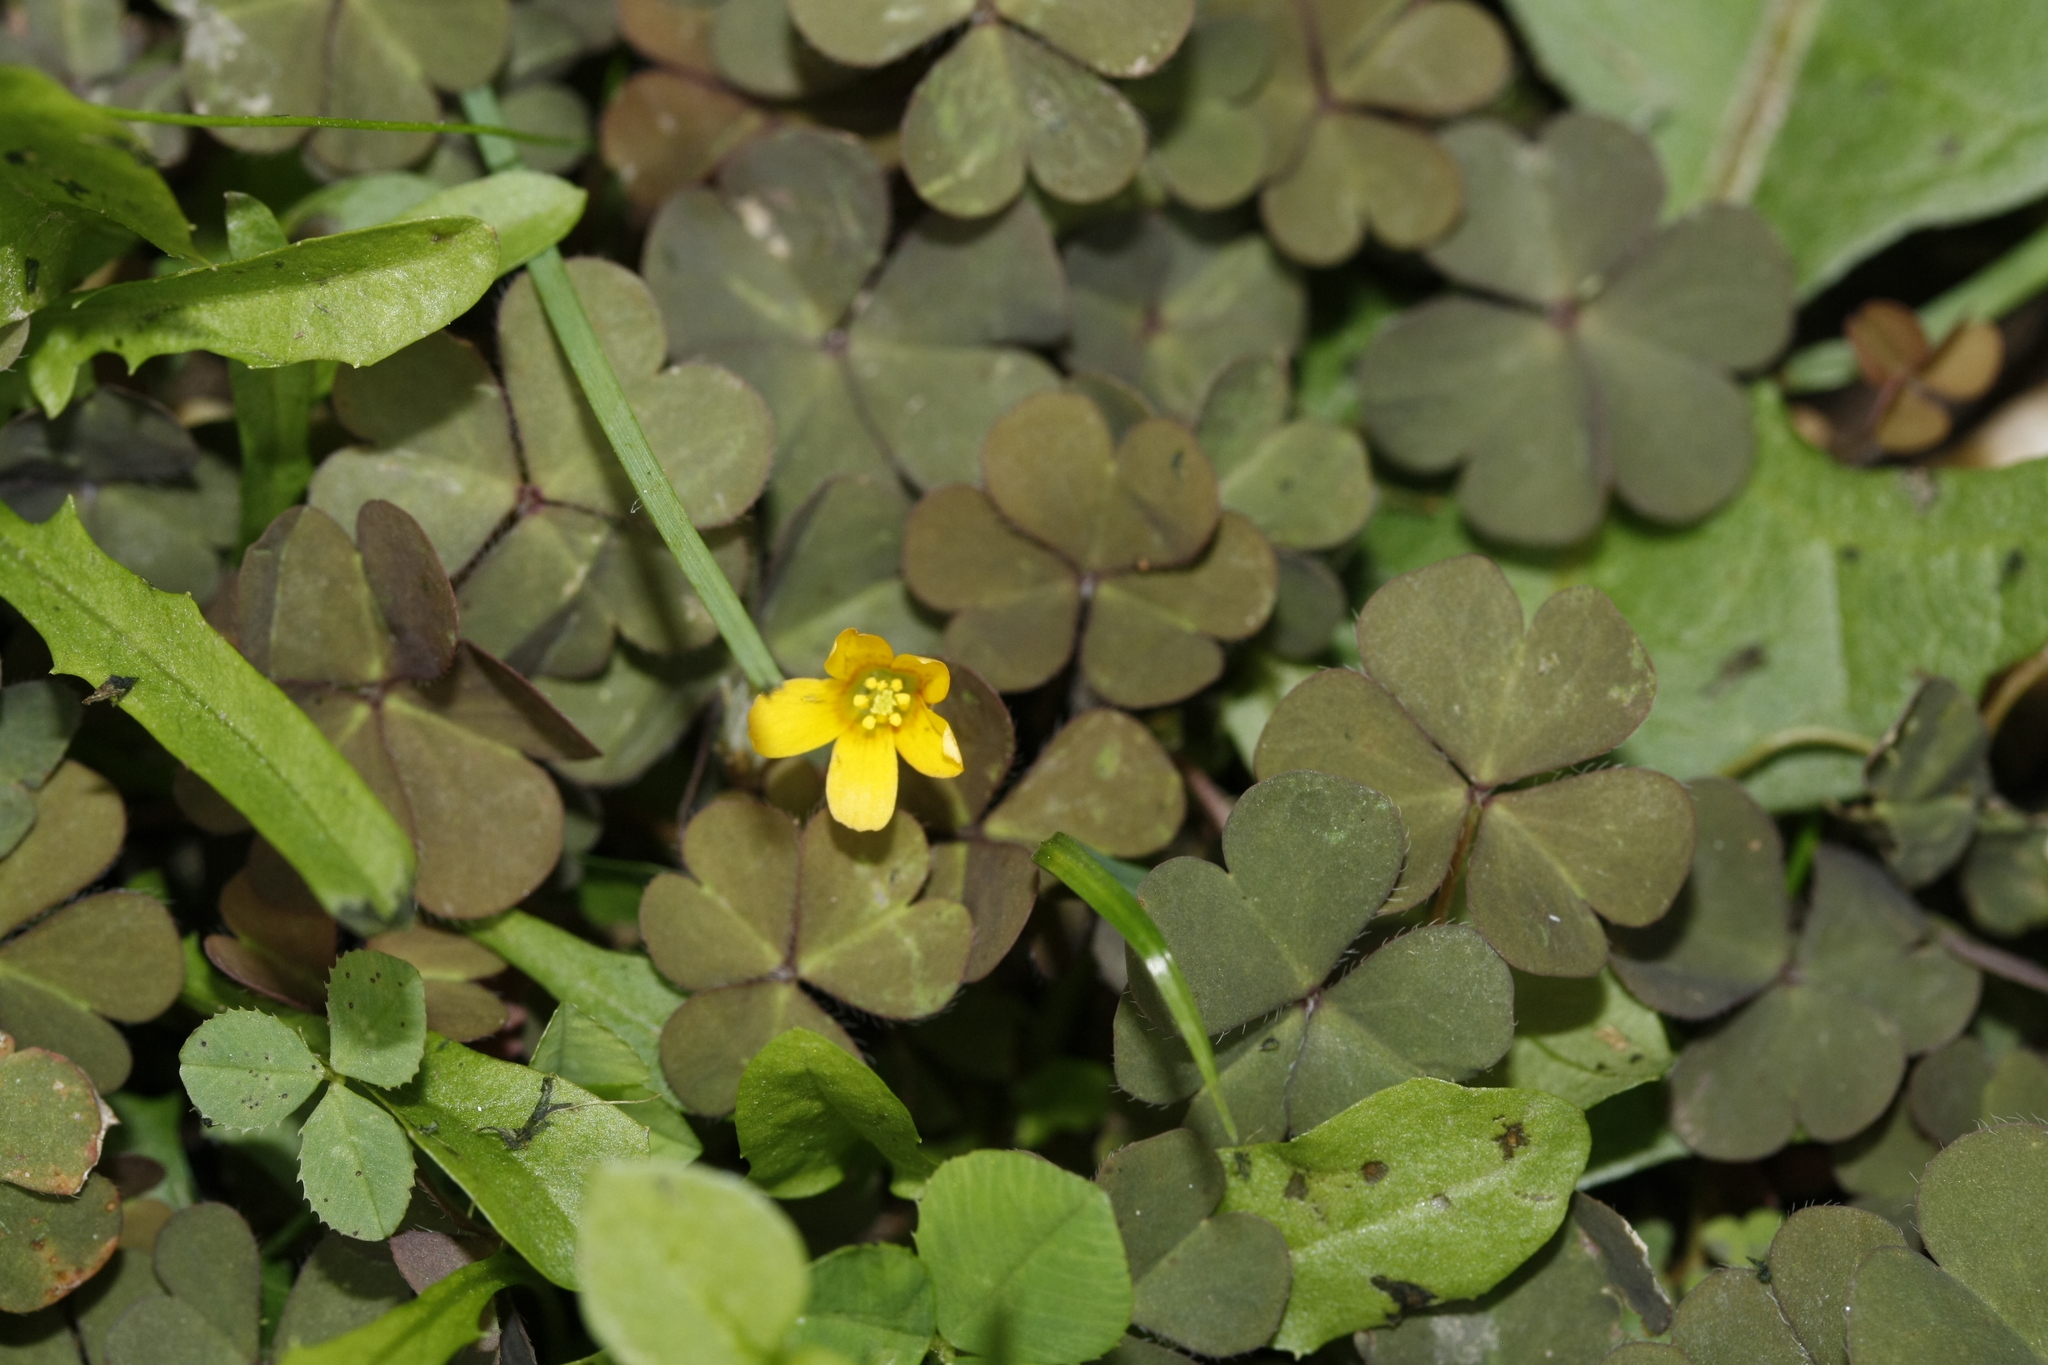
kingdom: Plantae
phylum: Tracheophyta
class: Magnoliopsida
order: Oxalidales
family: Oxalidaceae
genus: Oxalis
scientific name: Oxalis corniculata
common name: Procumbent yellow-sorrel
